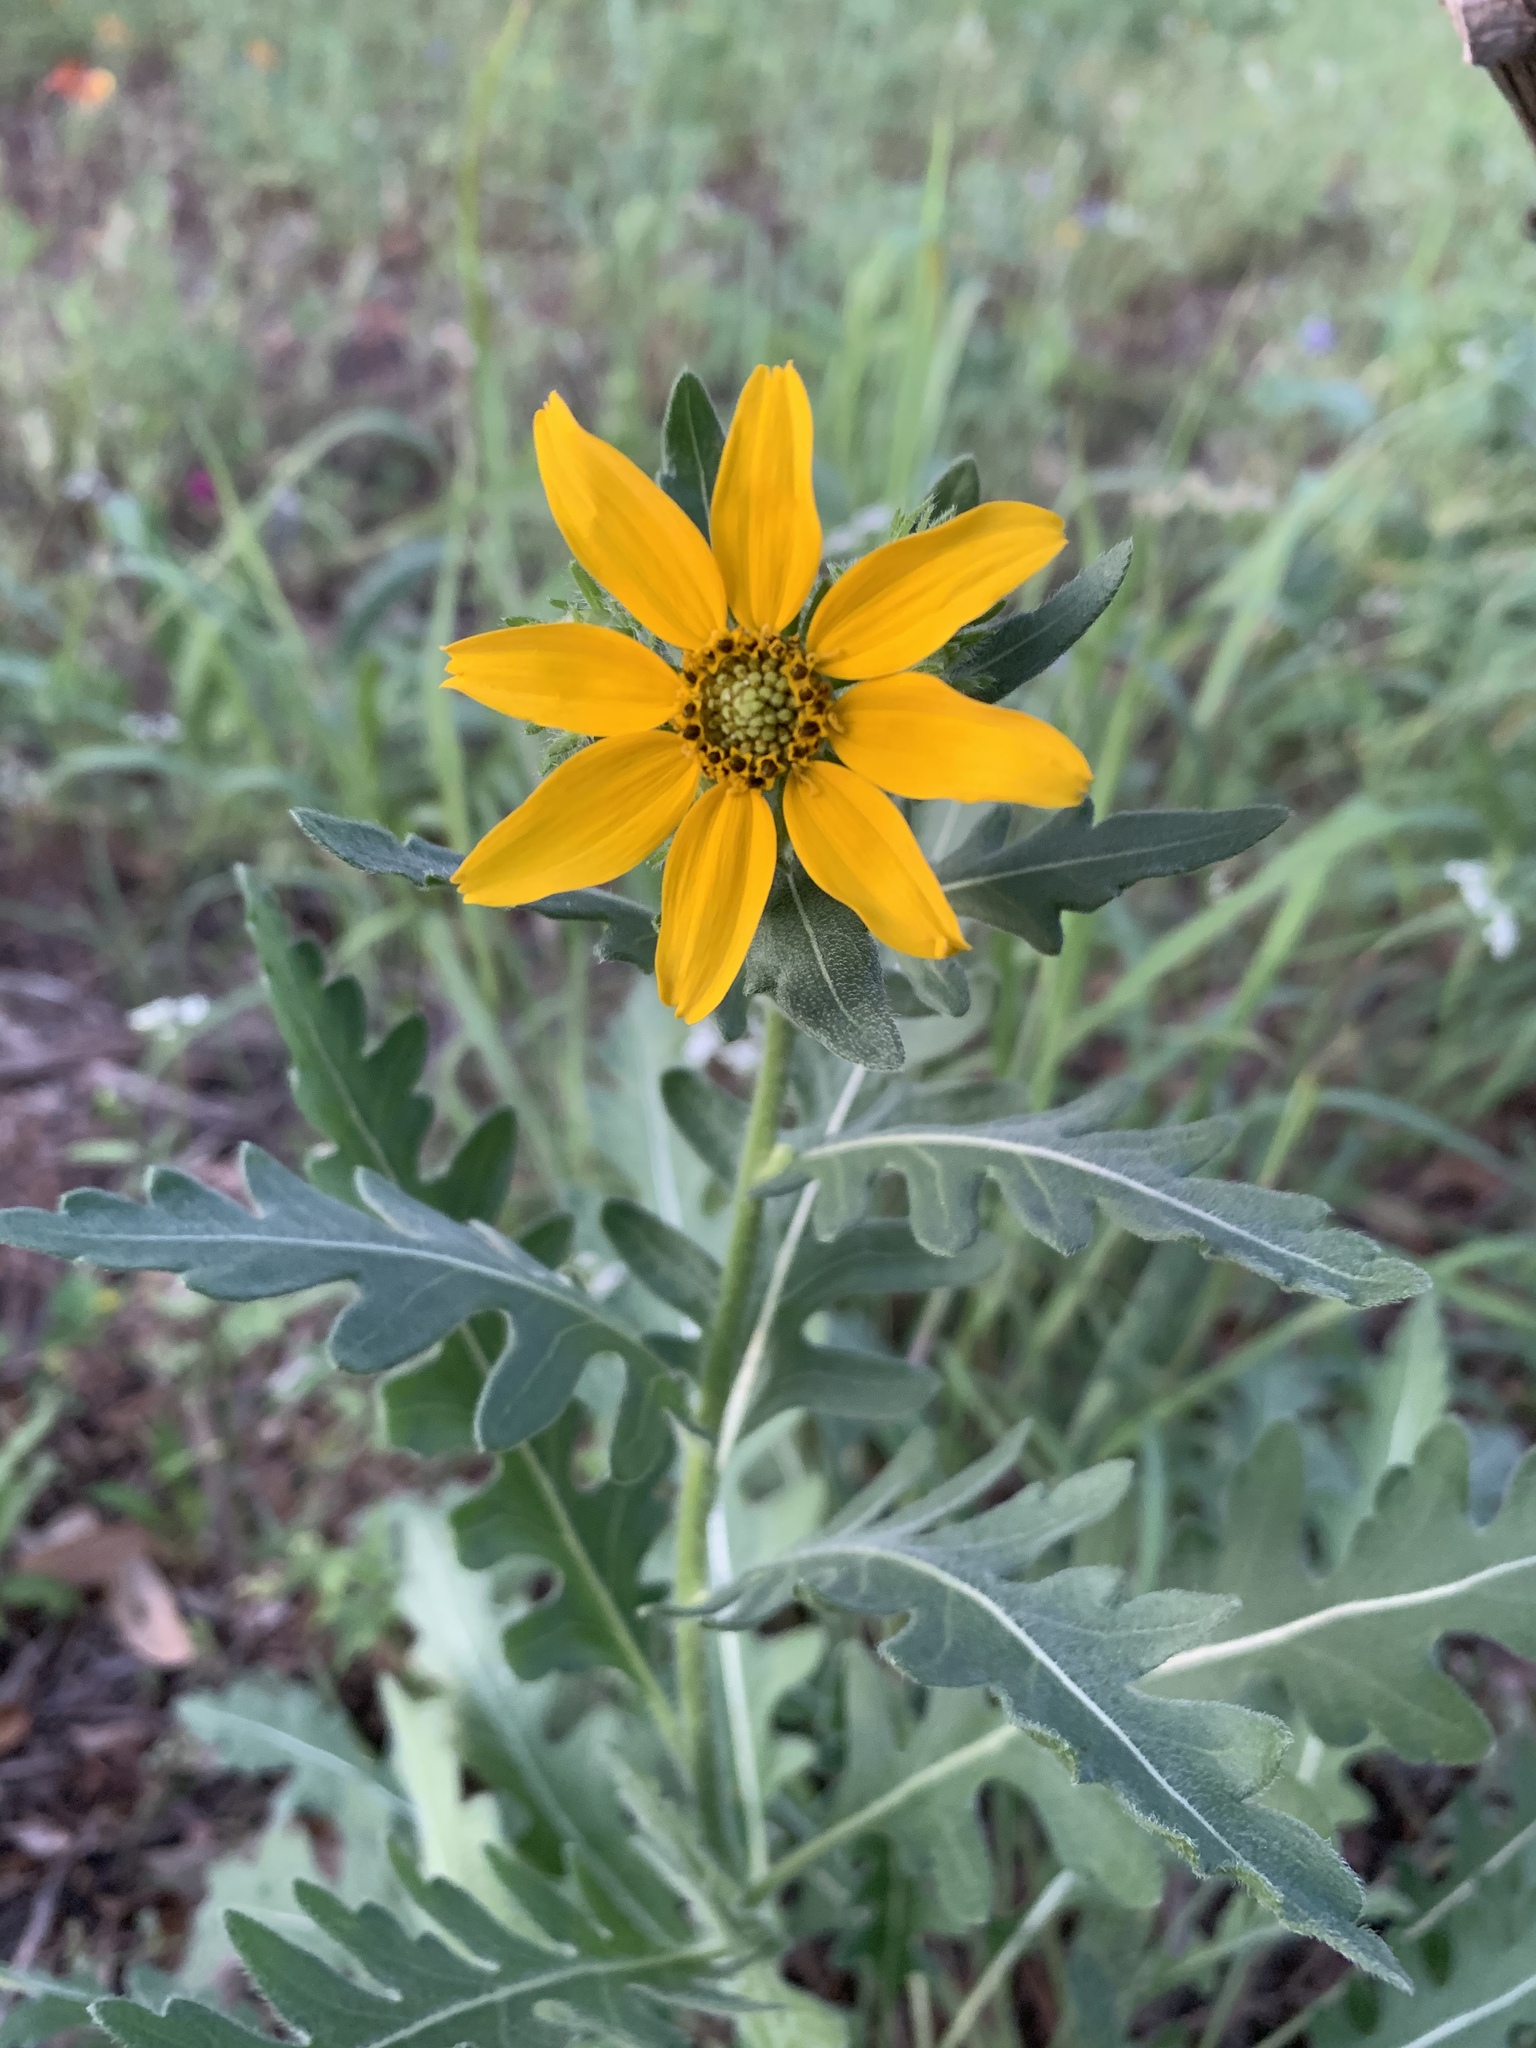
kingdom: Plantae
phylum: Tracheophyta
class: Magnoliopsida
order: Asterales
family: Asteraceae
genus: Engelmannia
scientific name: Engelmannia peristenia
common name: Engelmann's daisy
